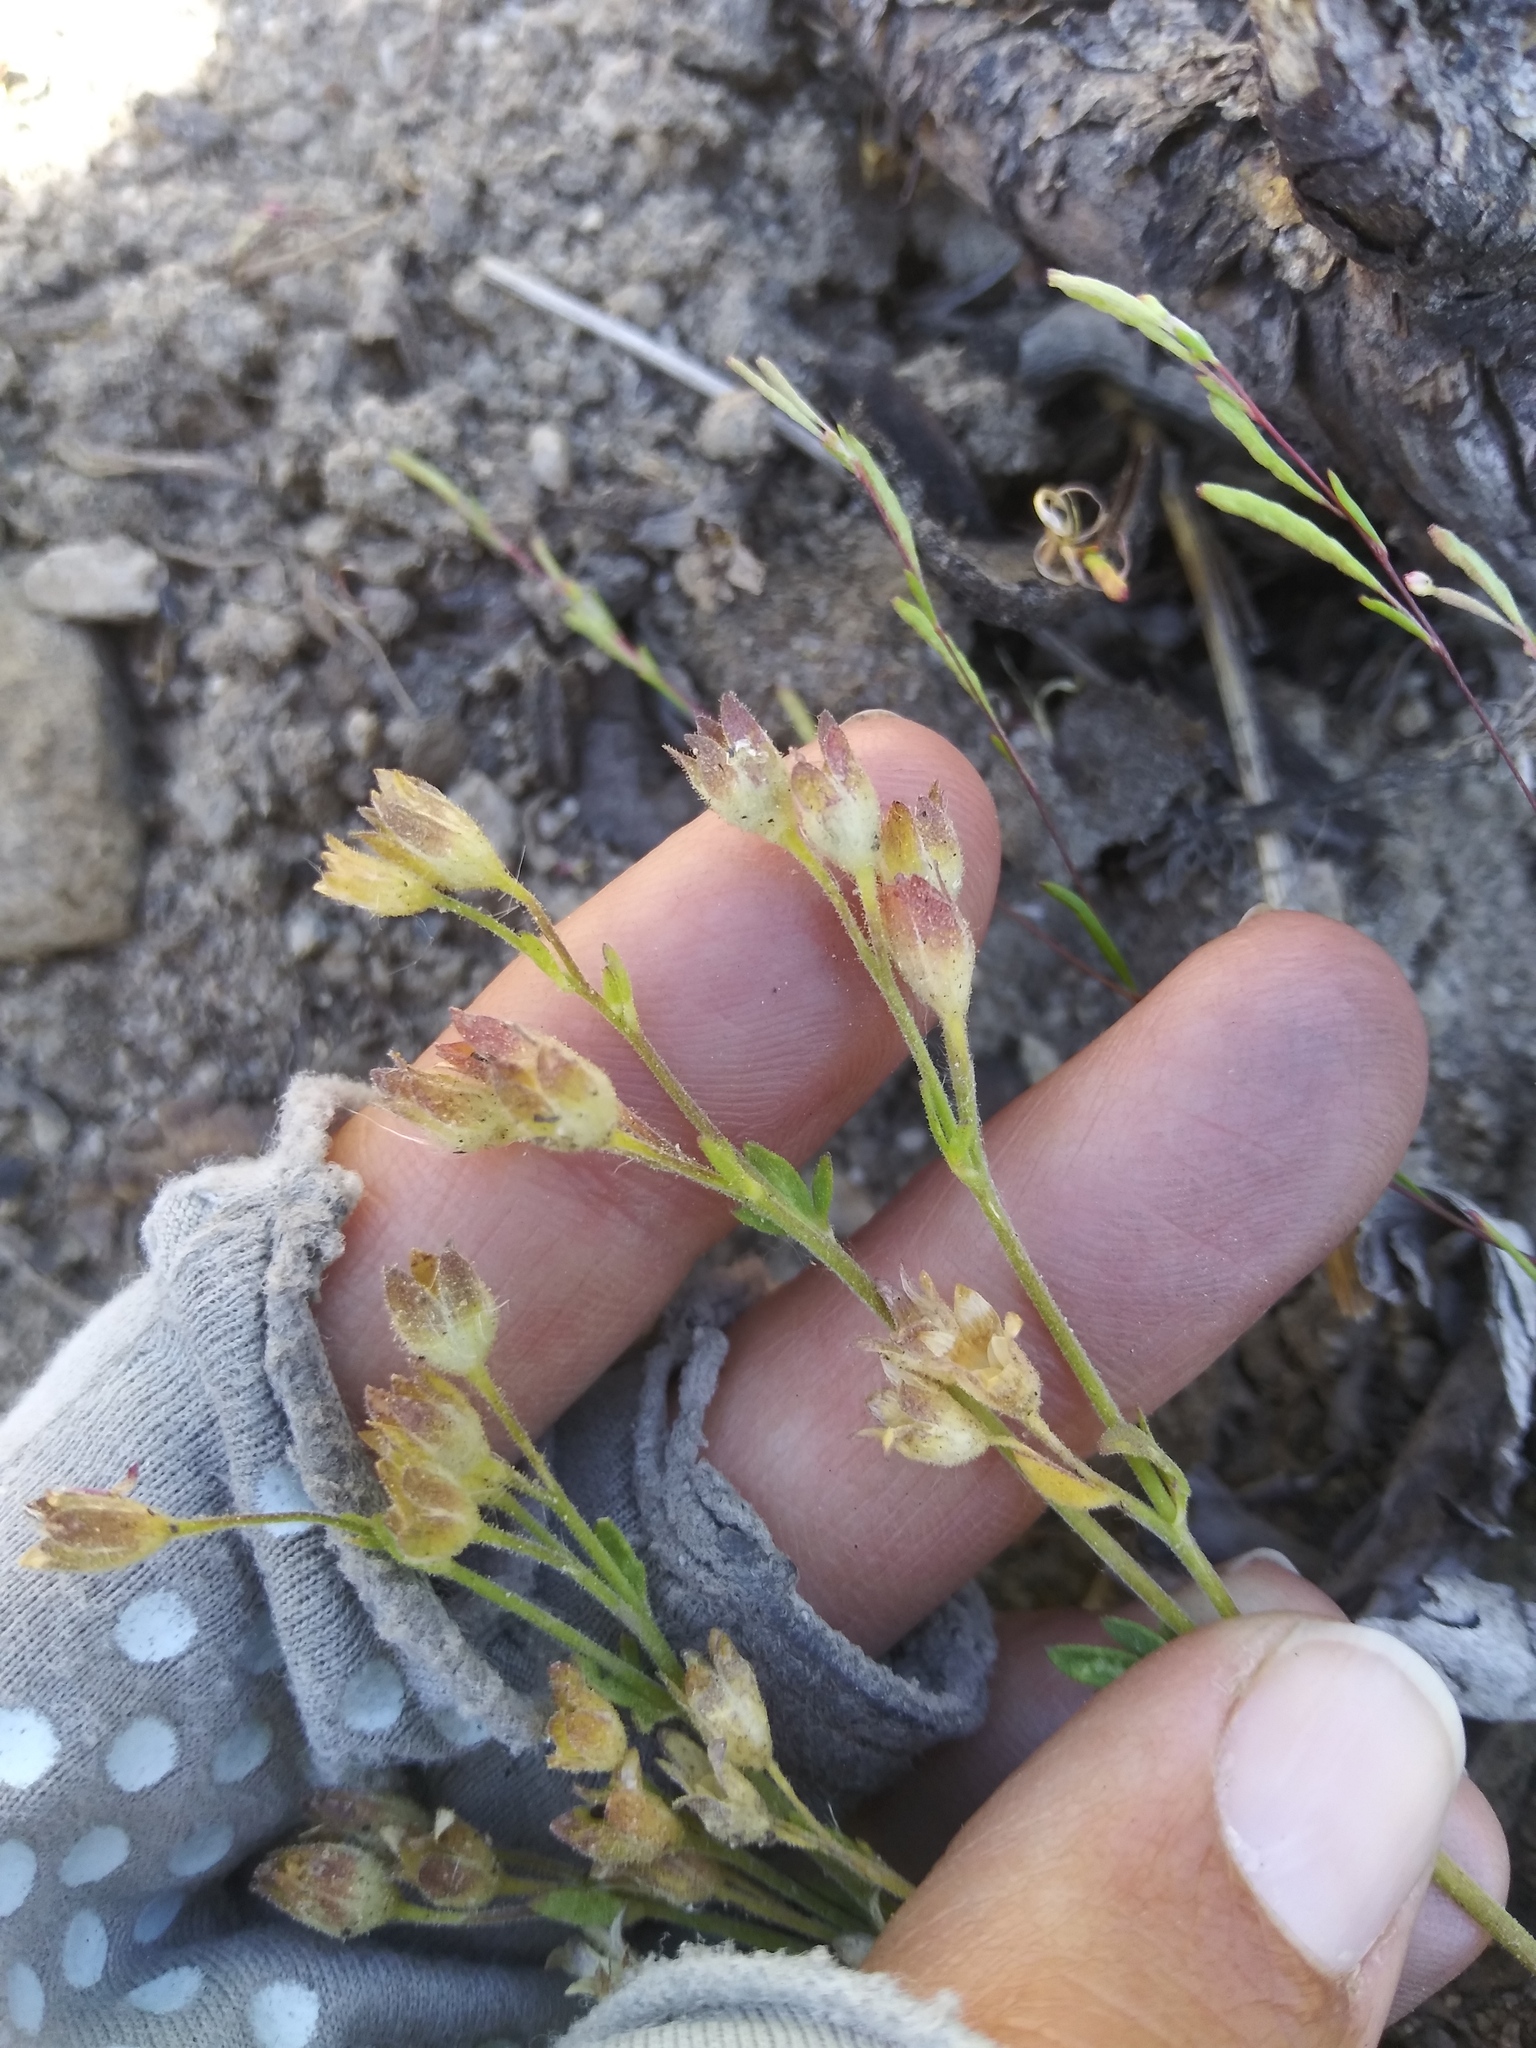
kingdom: Plantae
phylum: Tracheophyta
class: Magnoliopsida
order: Ericales
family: Polemoniaceae
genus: Polemonium
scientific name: Polemonium pulcherrimum
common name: Short jacob's-ladder
